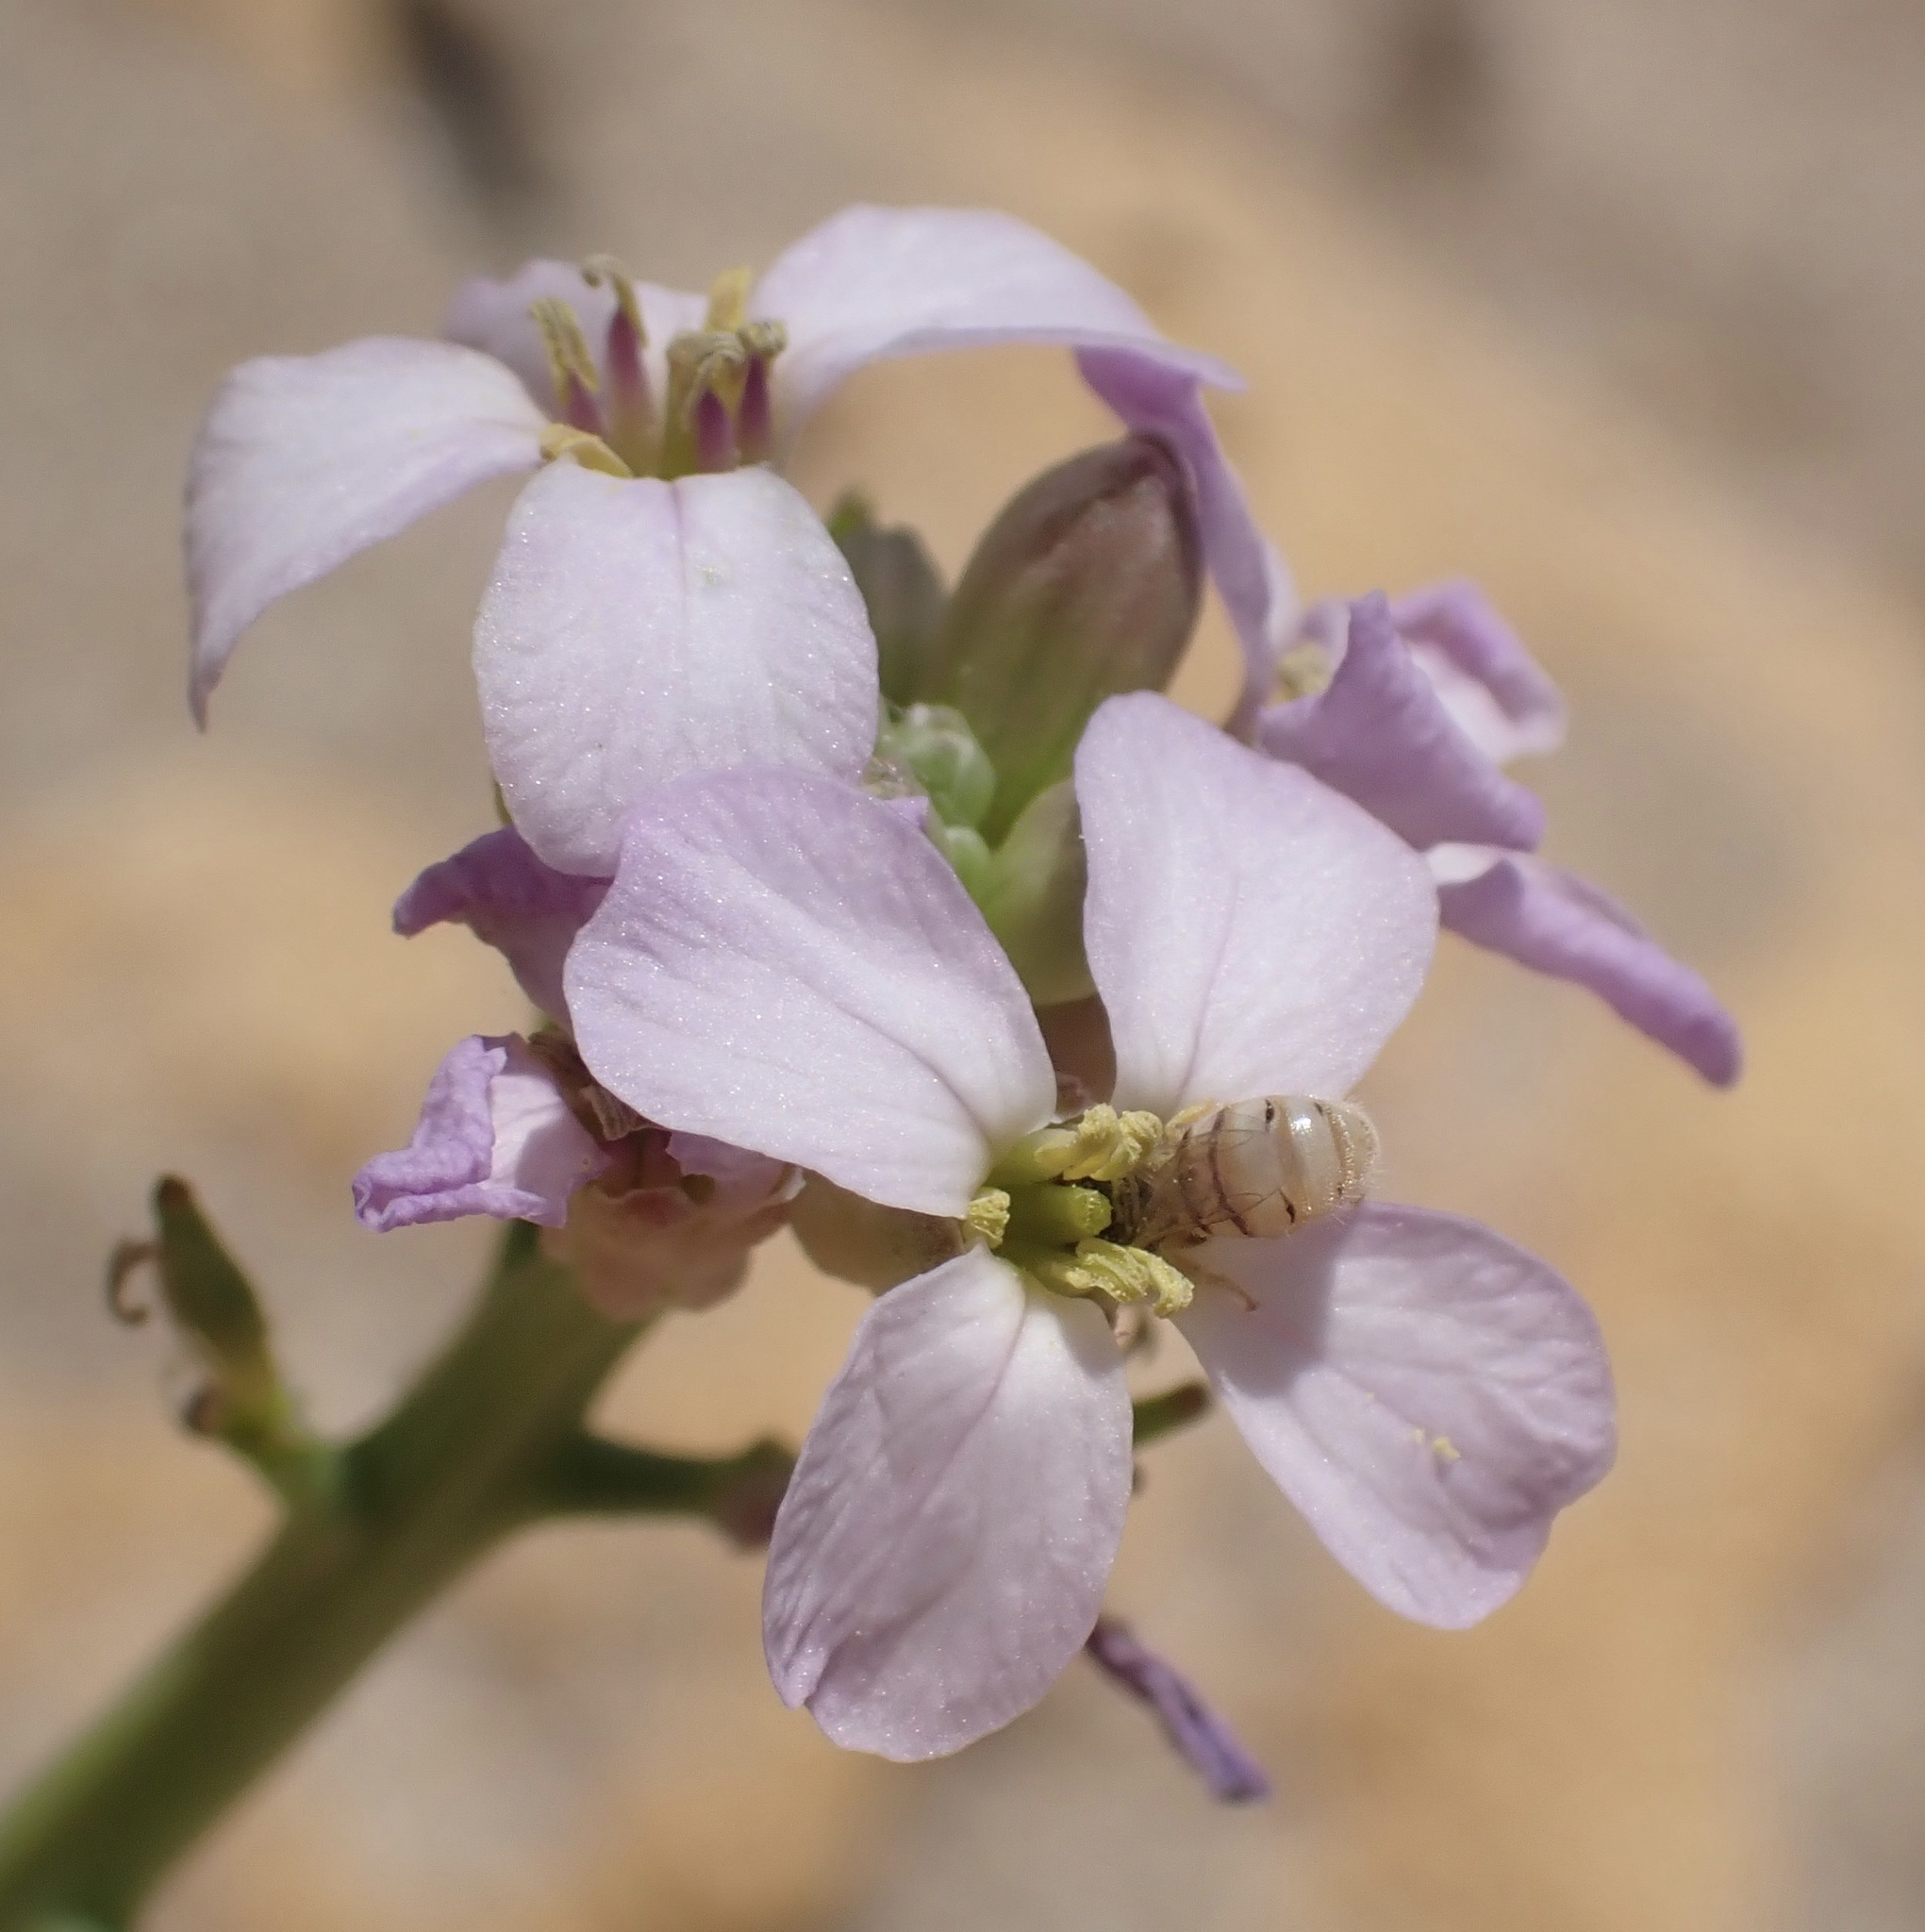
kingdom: Animalia
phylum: Arthropoda
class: Insecta
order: Hymenoptera
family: Halictidae
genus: Nomioides
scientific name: Nomioides minutissimus
